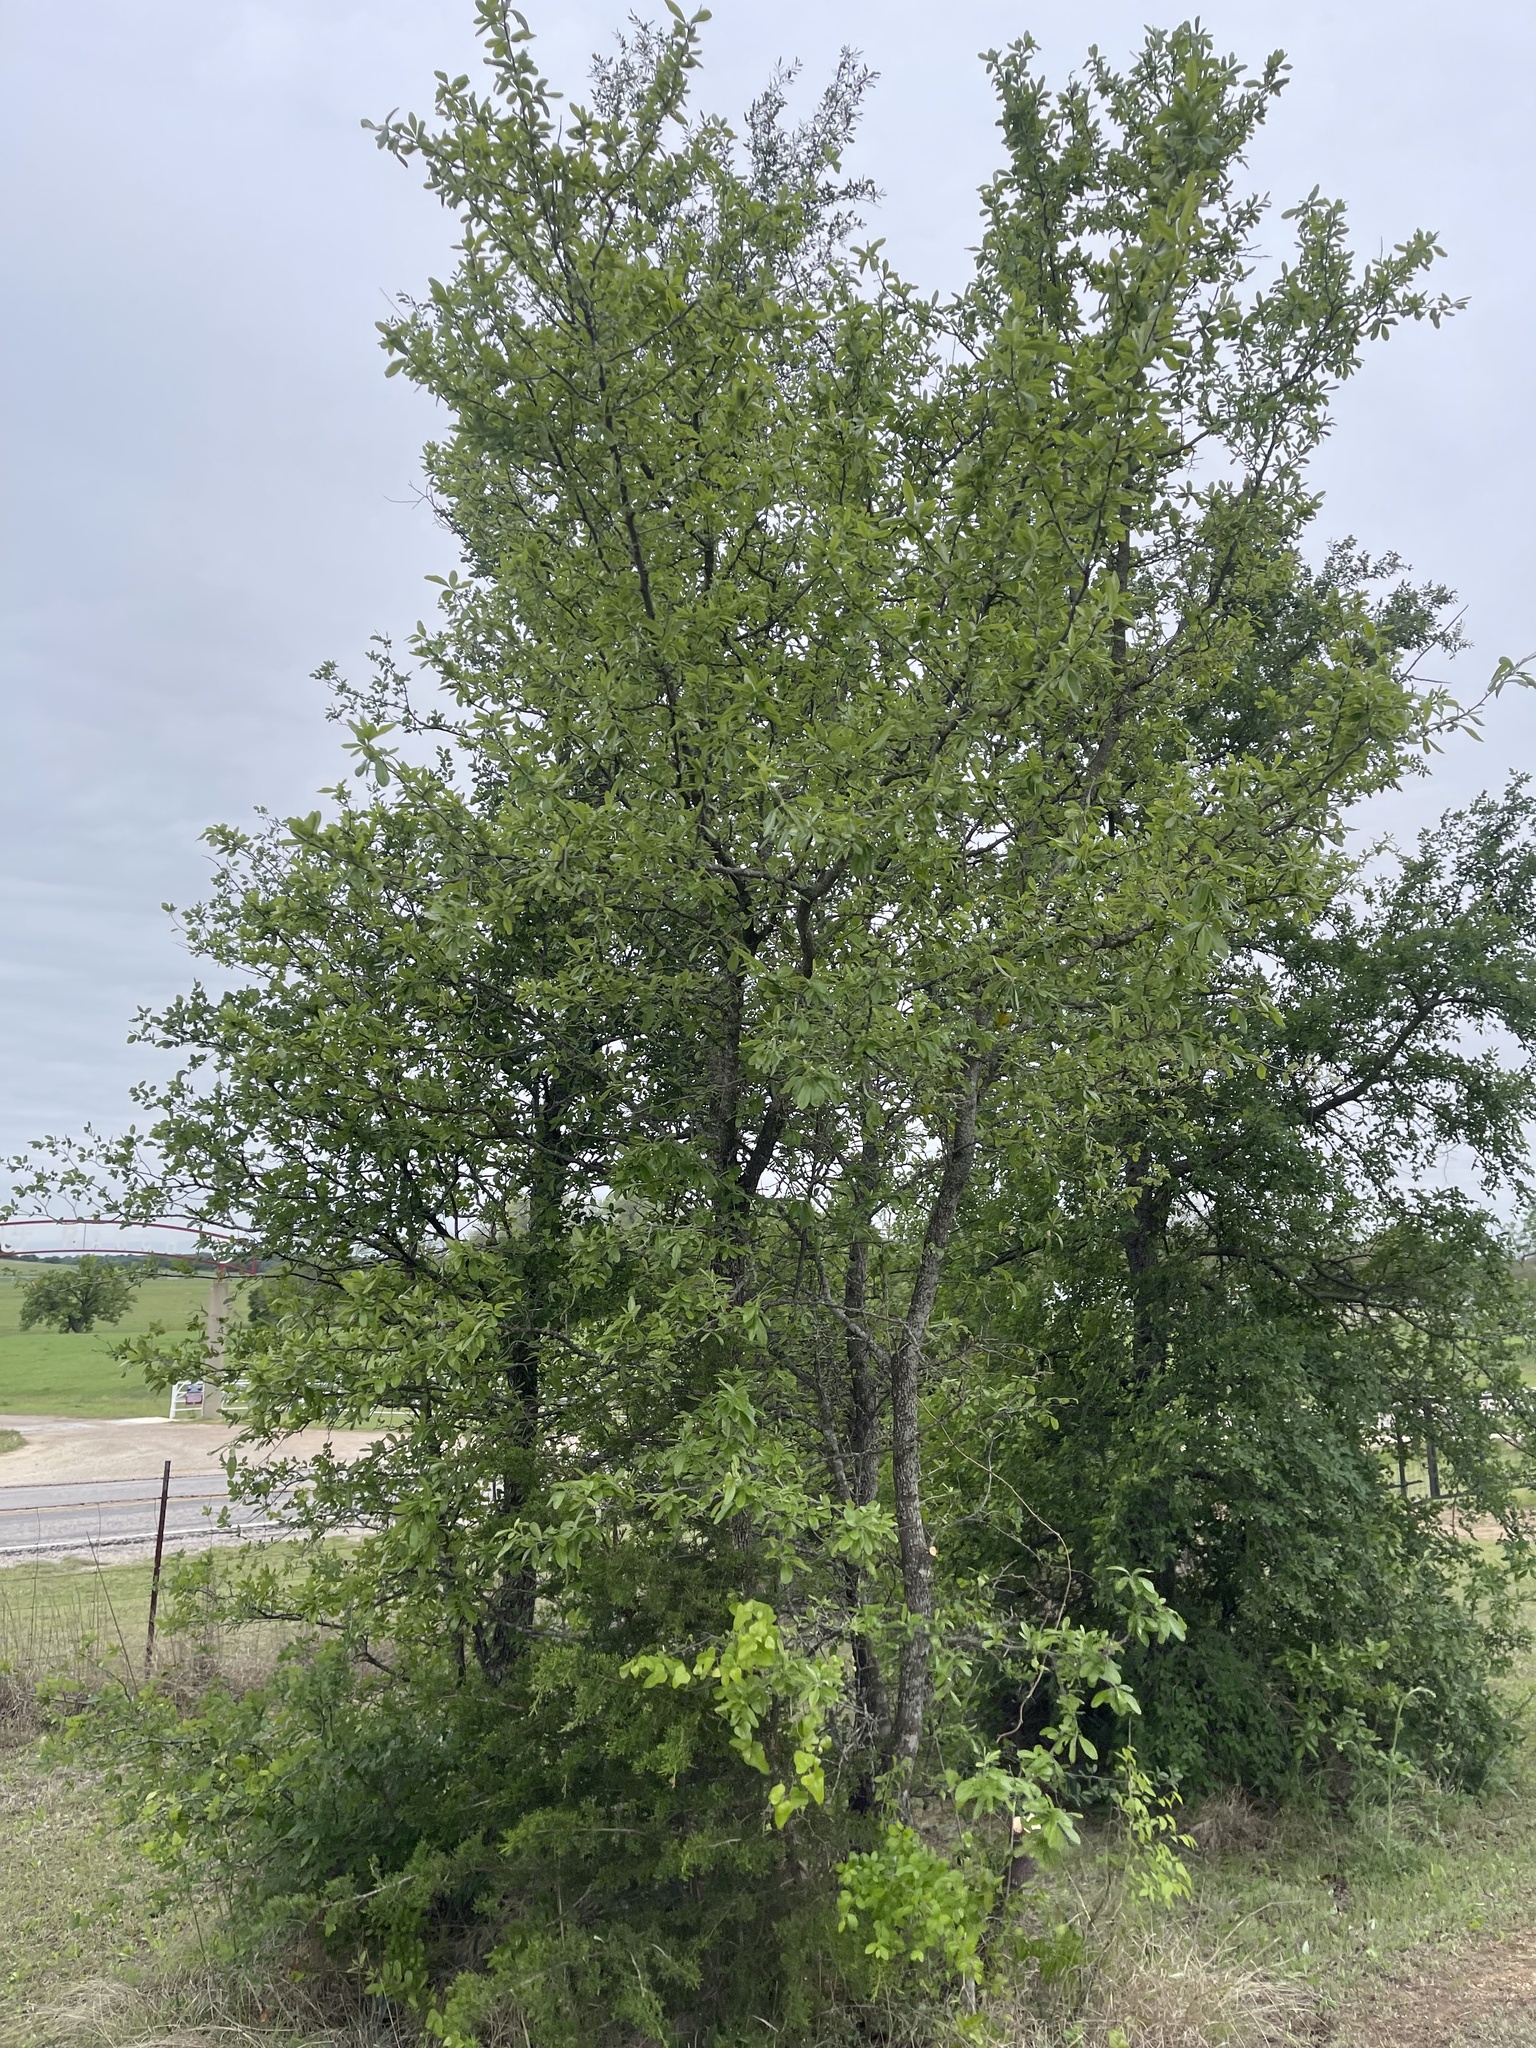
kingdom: Plantae
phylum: Tracheophyta
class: Magnoliopsida
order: Ericales
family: Sapotaceae
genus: Sideroxylon
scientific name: Sideroxylon lanuginosum
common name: Chittamwood
